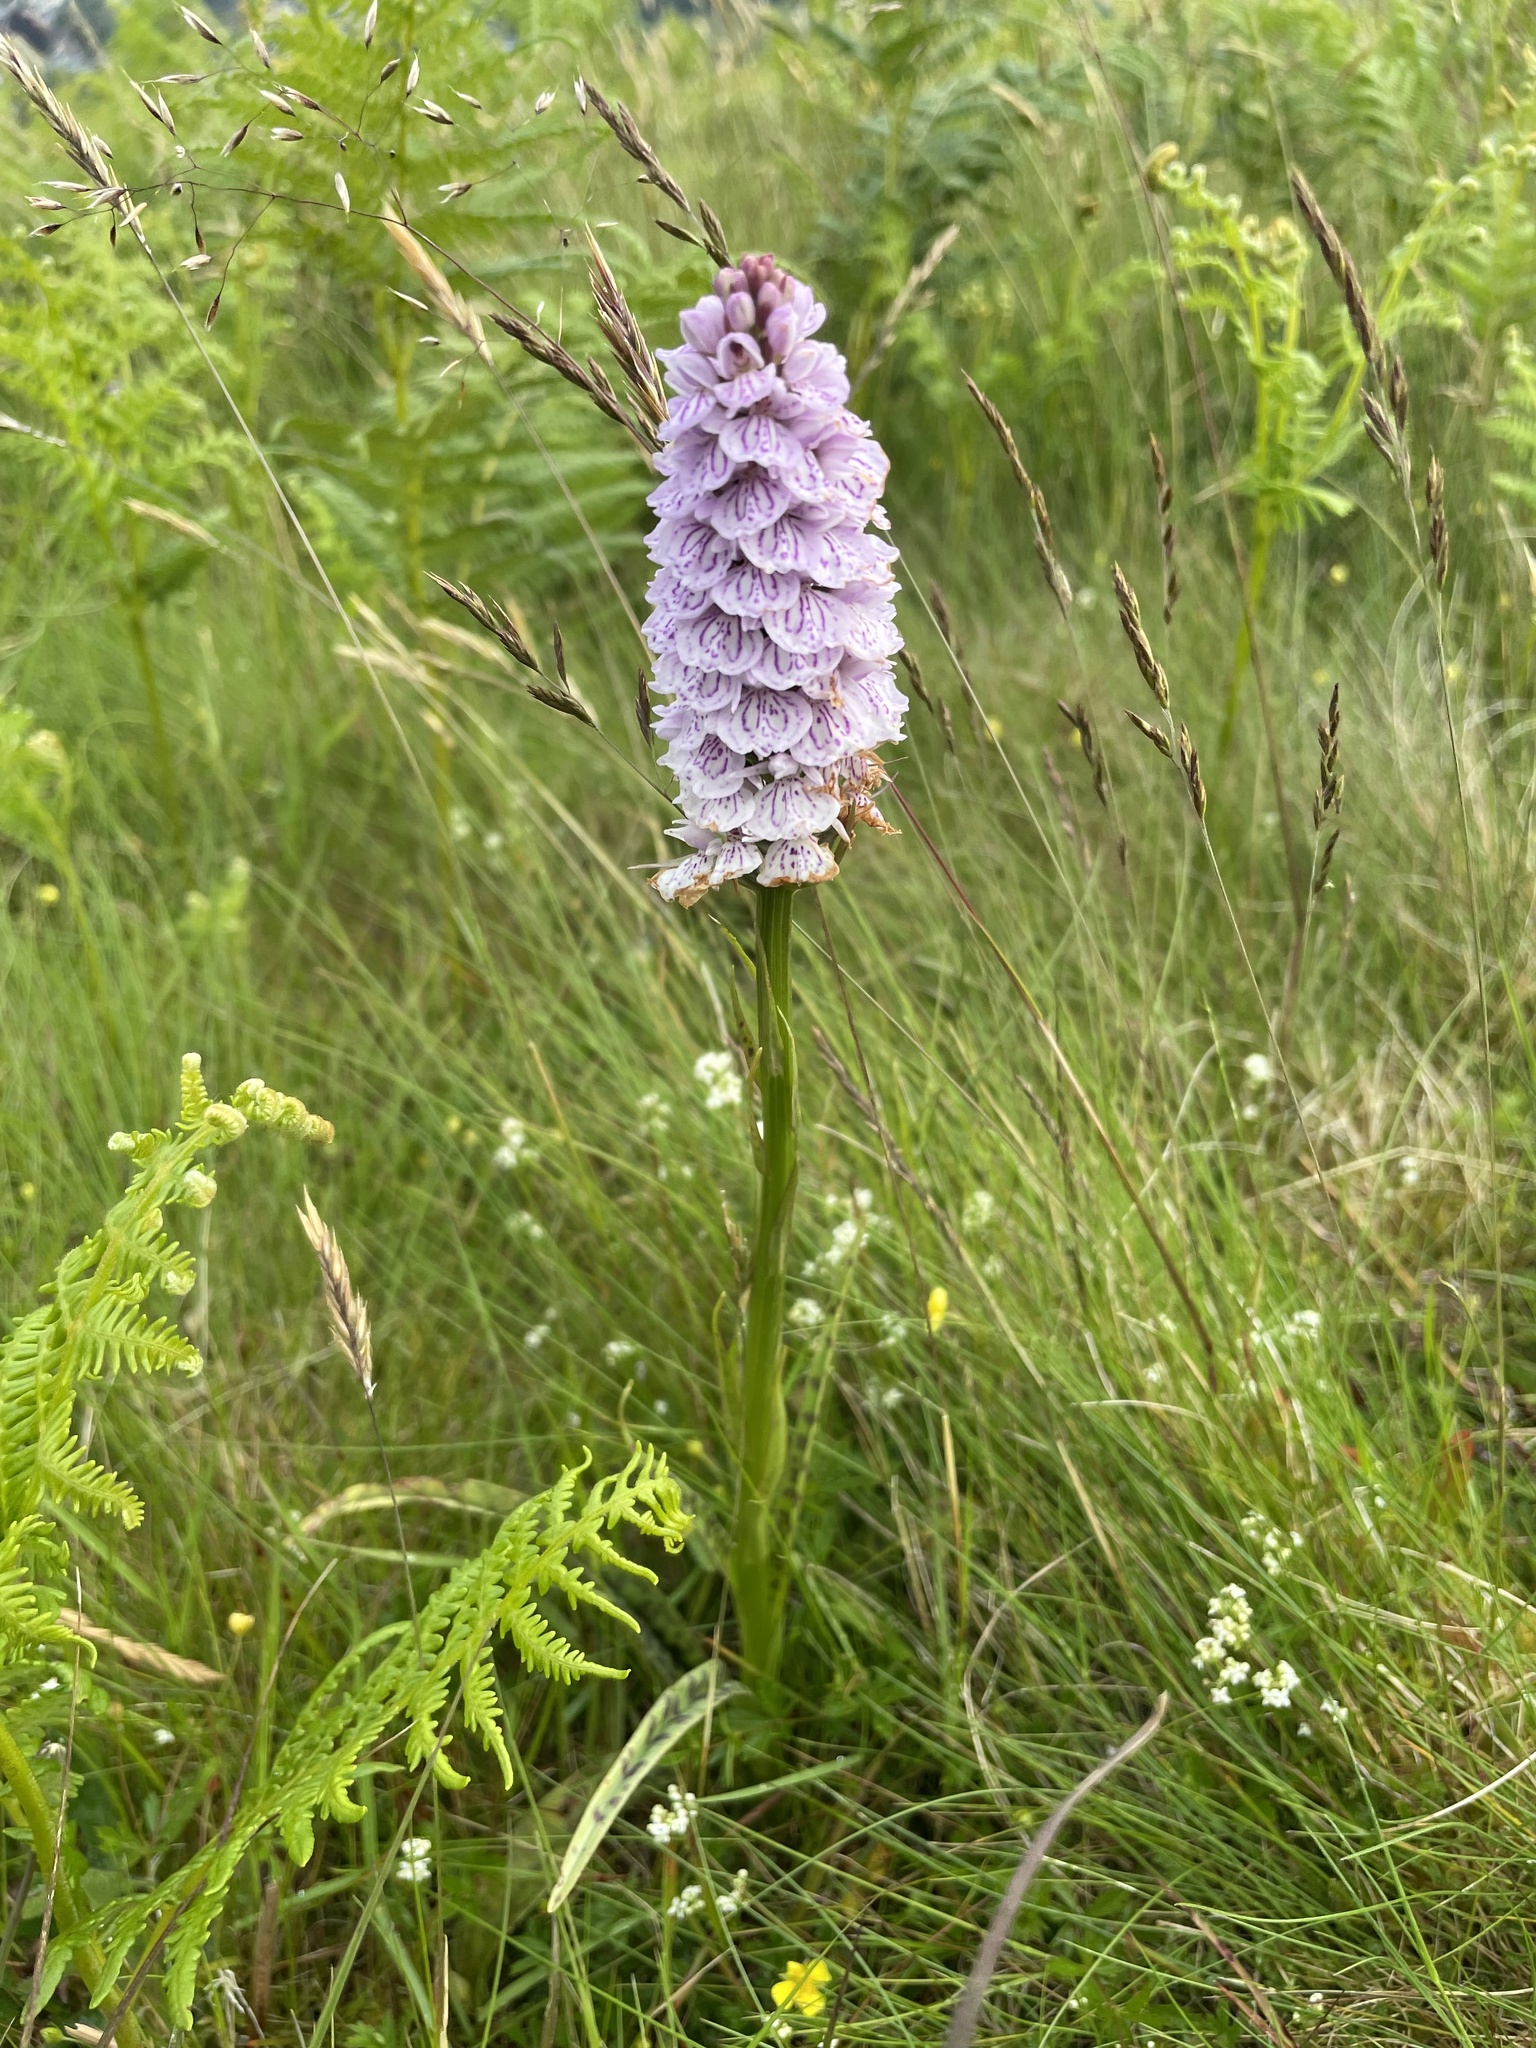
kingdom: Plantae
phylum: Tracheophyta
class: Liliopsida
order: Asparagales
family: Orchidaceae
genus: Dactylorhiza
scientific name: Dactylorhiza maculata
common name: Heath spotted-orchid
